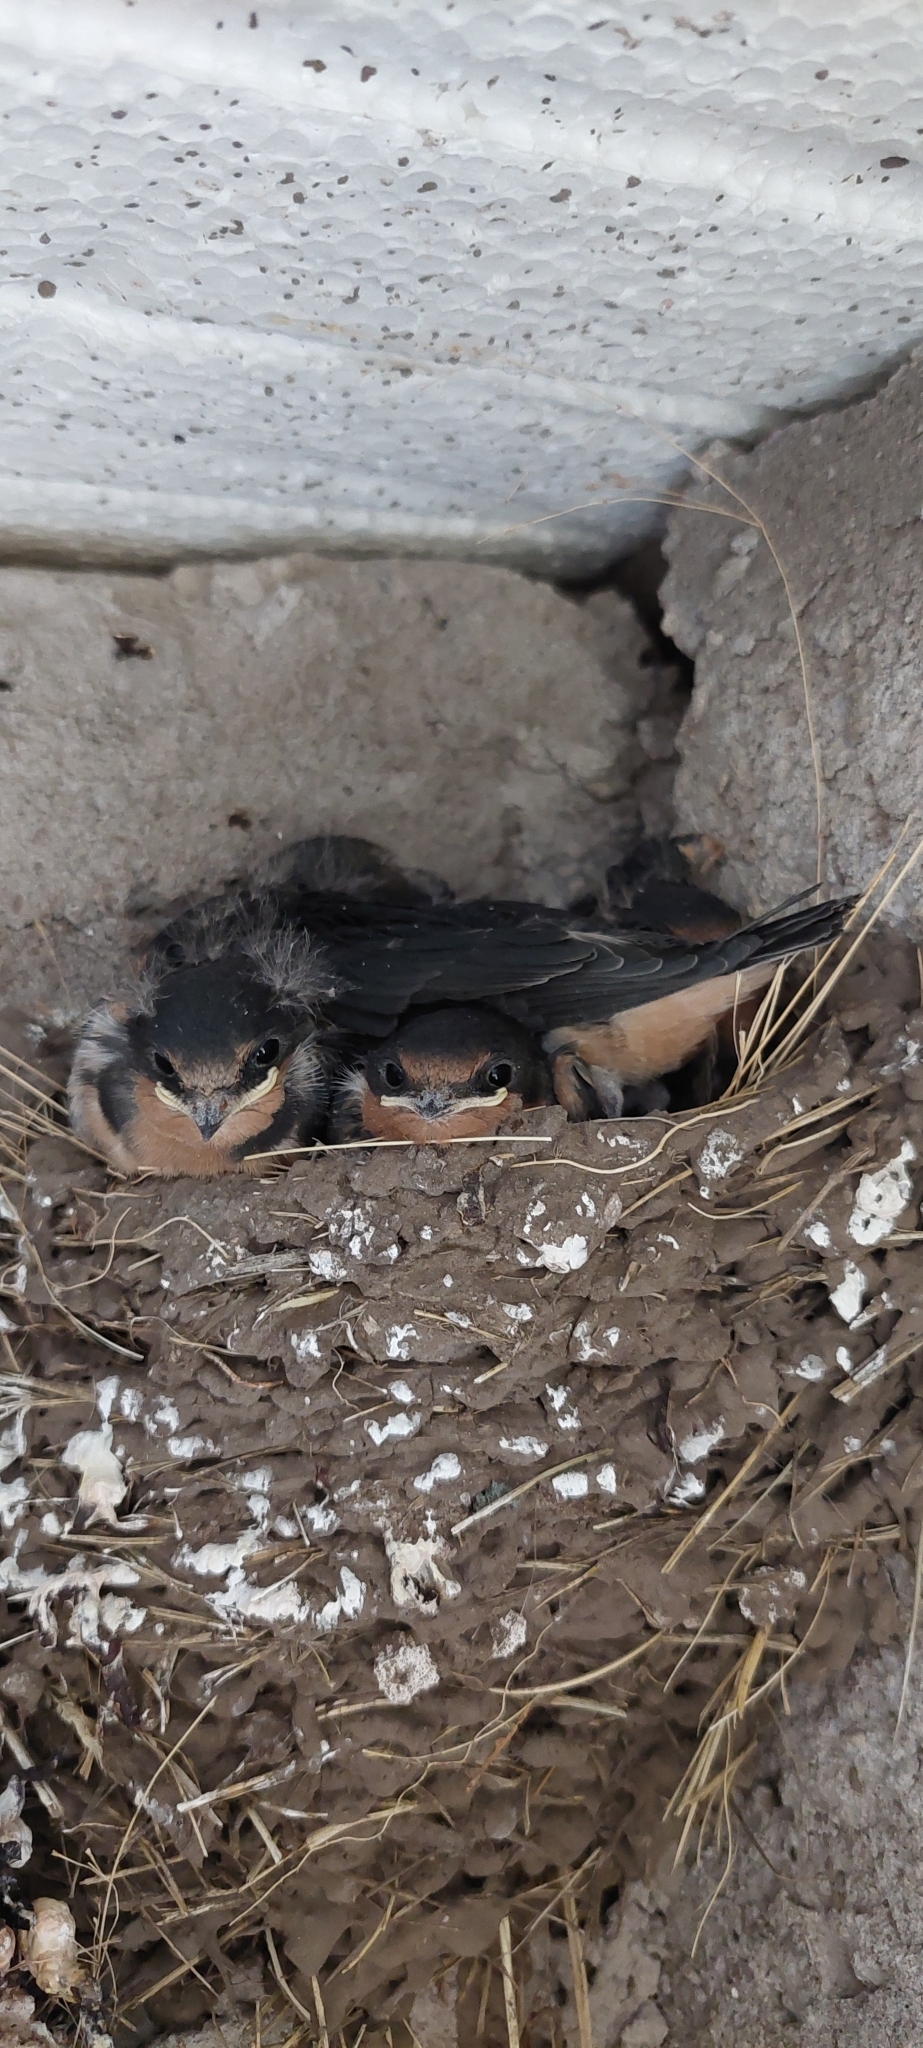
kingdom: Animalia
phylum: Chordata
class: Aves
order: Passeriformes
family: Hirundinidae
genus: Hirundo
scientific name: Hirundo rustica
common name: Barn swallow
